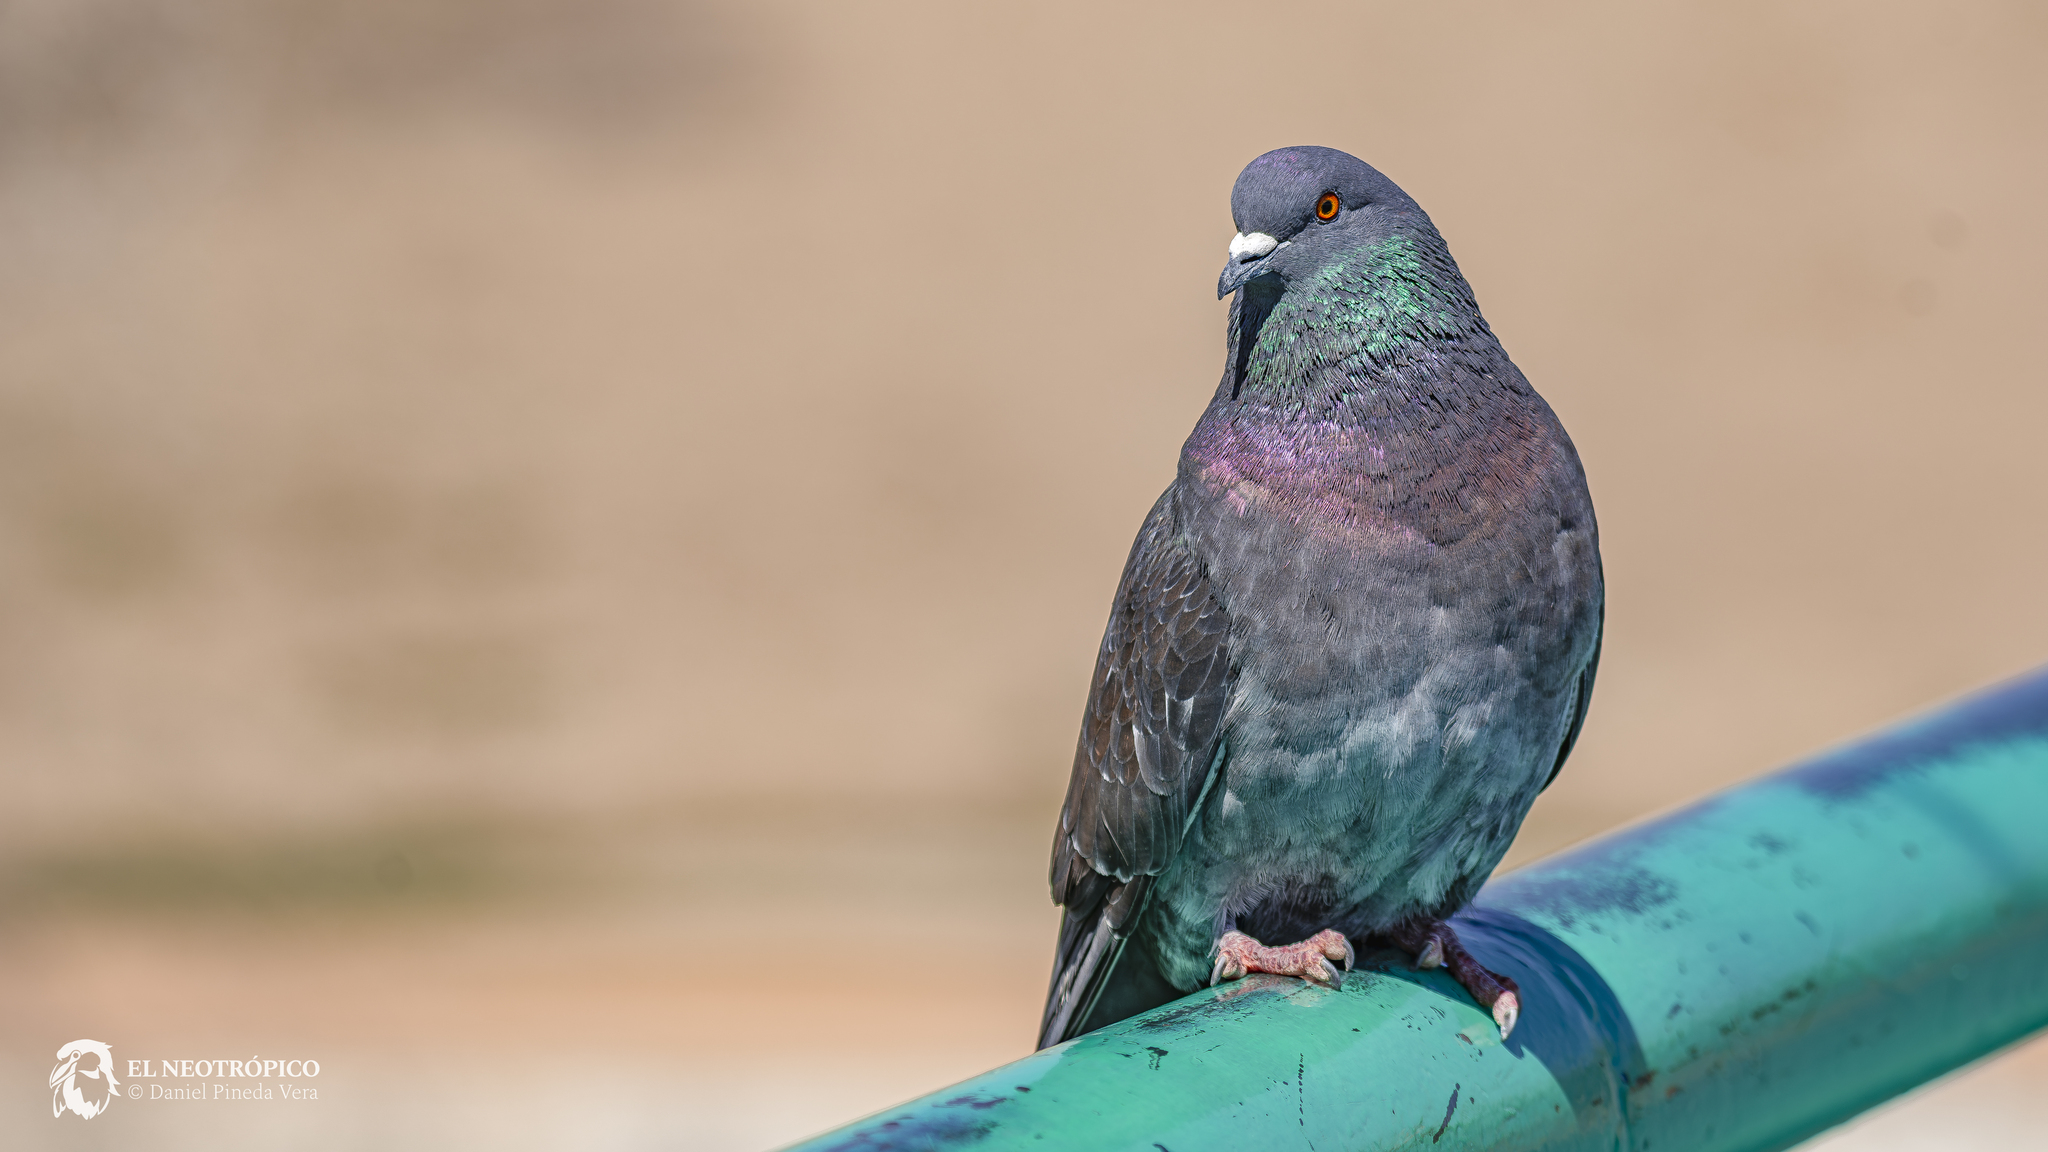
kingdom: Animalia
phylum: Chordata
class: Aves
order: Columbiformes
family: Columbidae
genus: Columba
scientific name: Columba livia
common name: Rock pigeon
